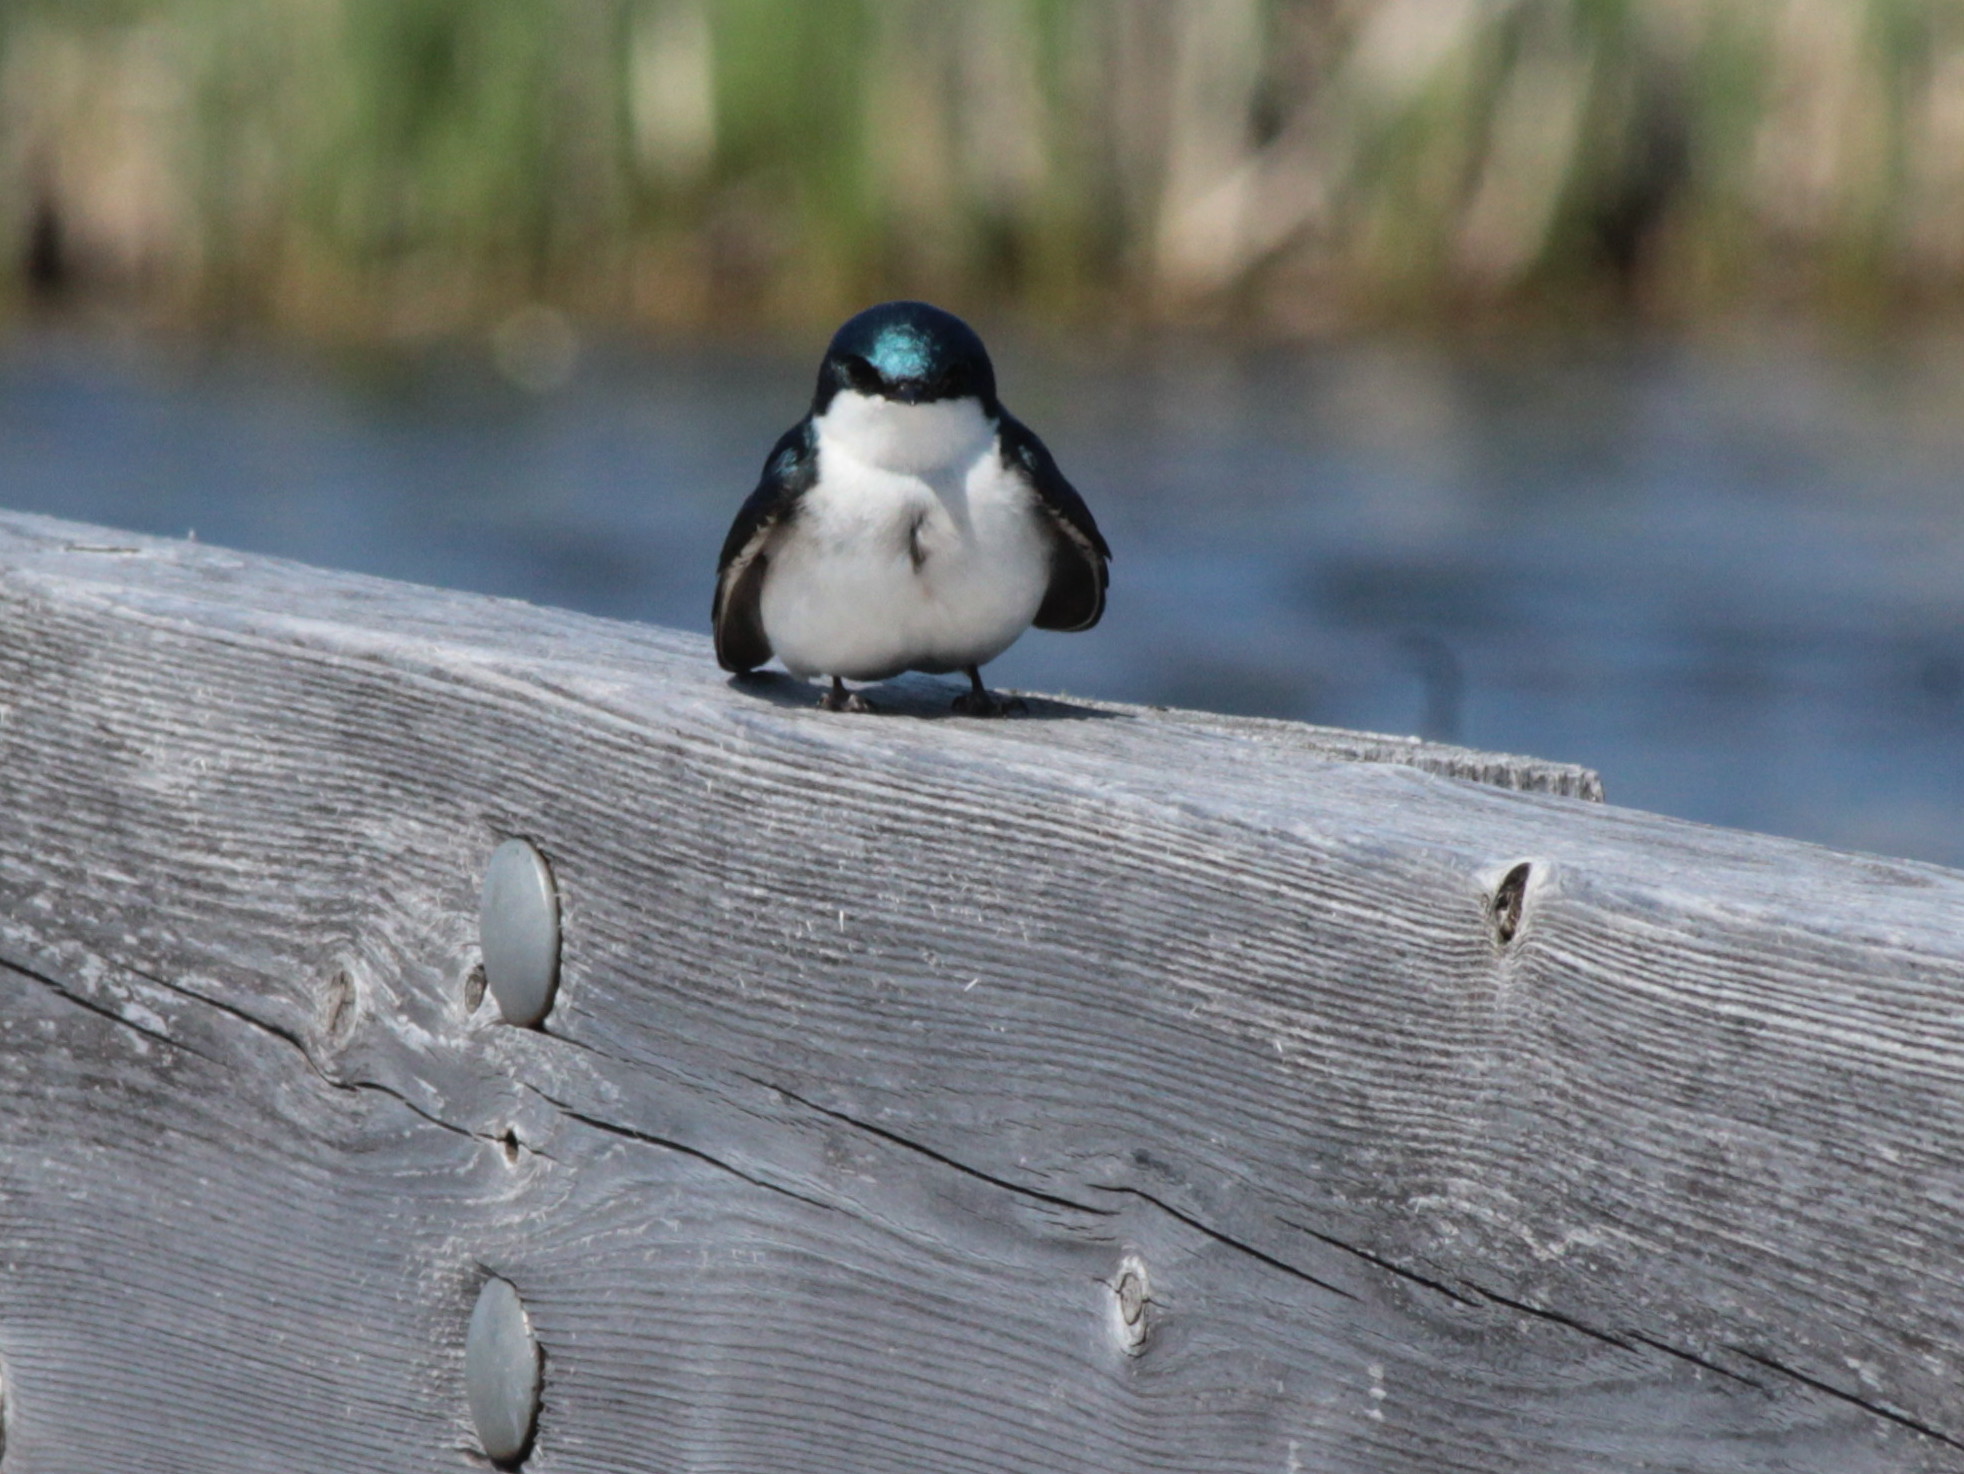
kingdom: Animalia
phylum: Chordata
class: Aves
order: Passeriformes
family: Hirundinidae
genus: Tachycineta
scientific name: Tachycineta bicolor
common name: Tree swallow
